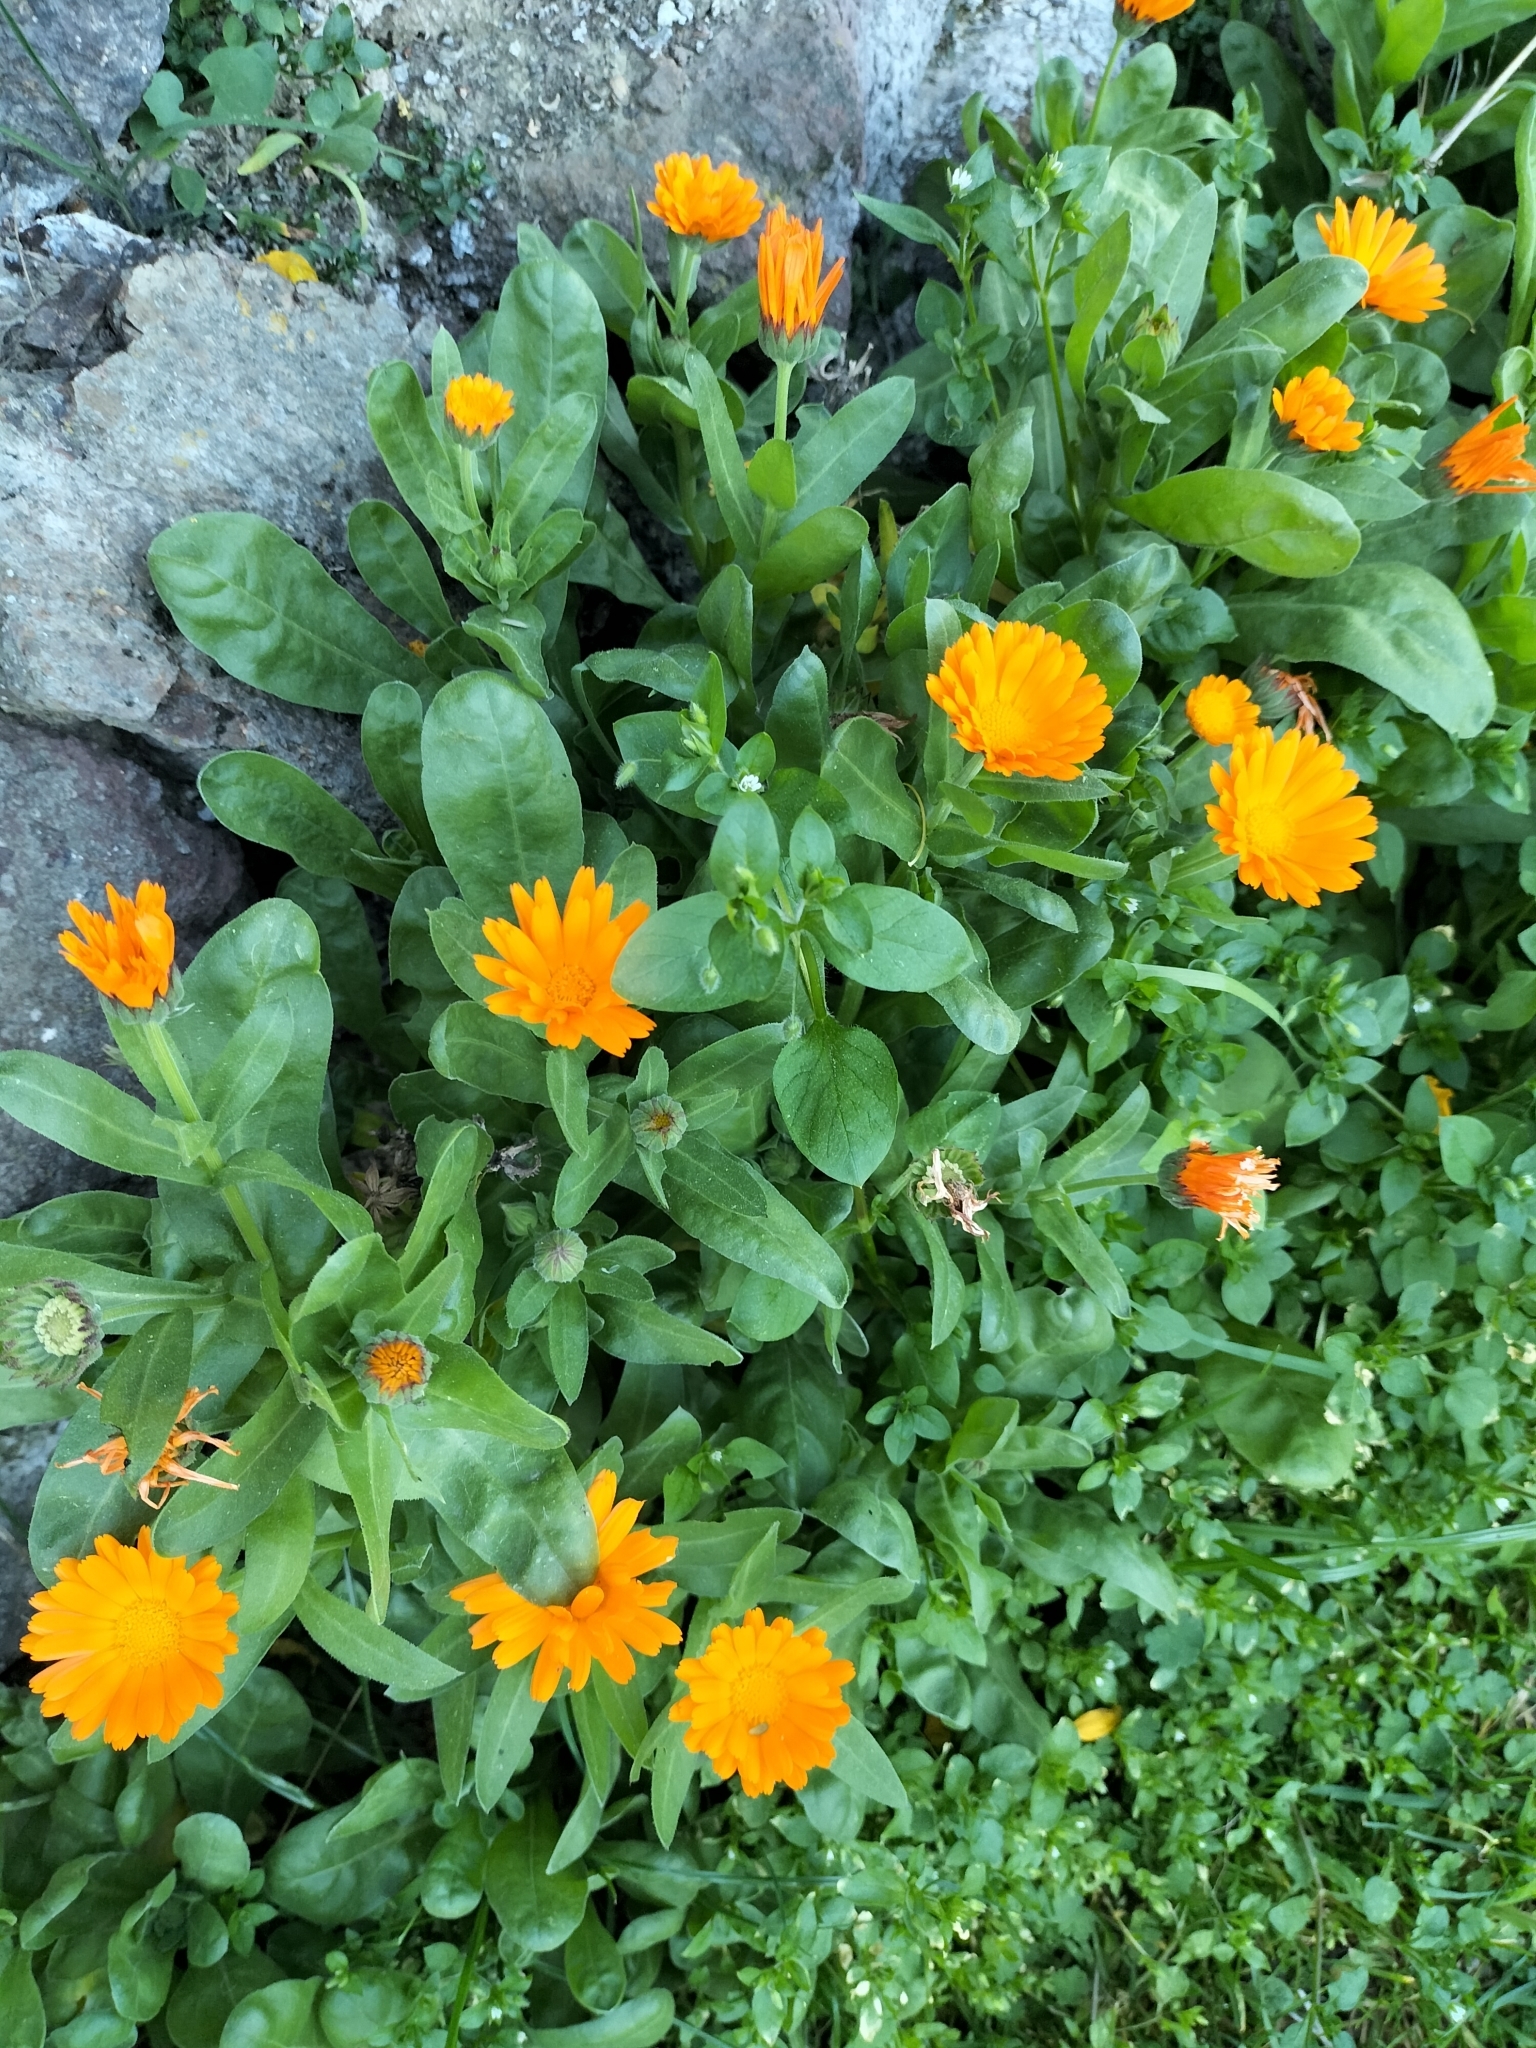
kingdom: Plantae
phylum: Tracheophyta
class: Magnoliopsida
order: Asterales
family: Asteraceae
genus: Calendula
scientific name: Calendula officinalis
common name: Pot marigold
